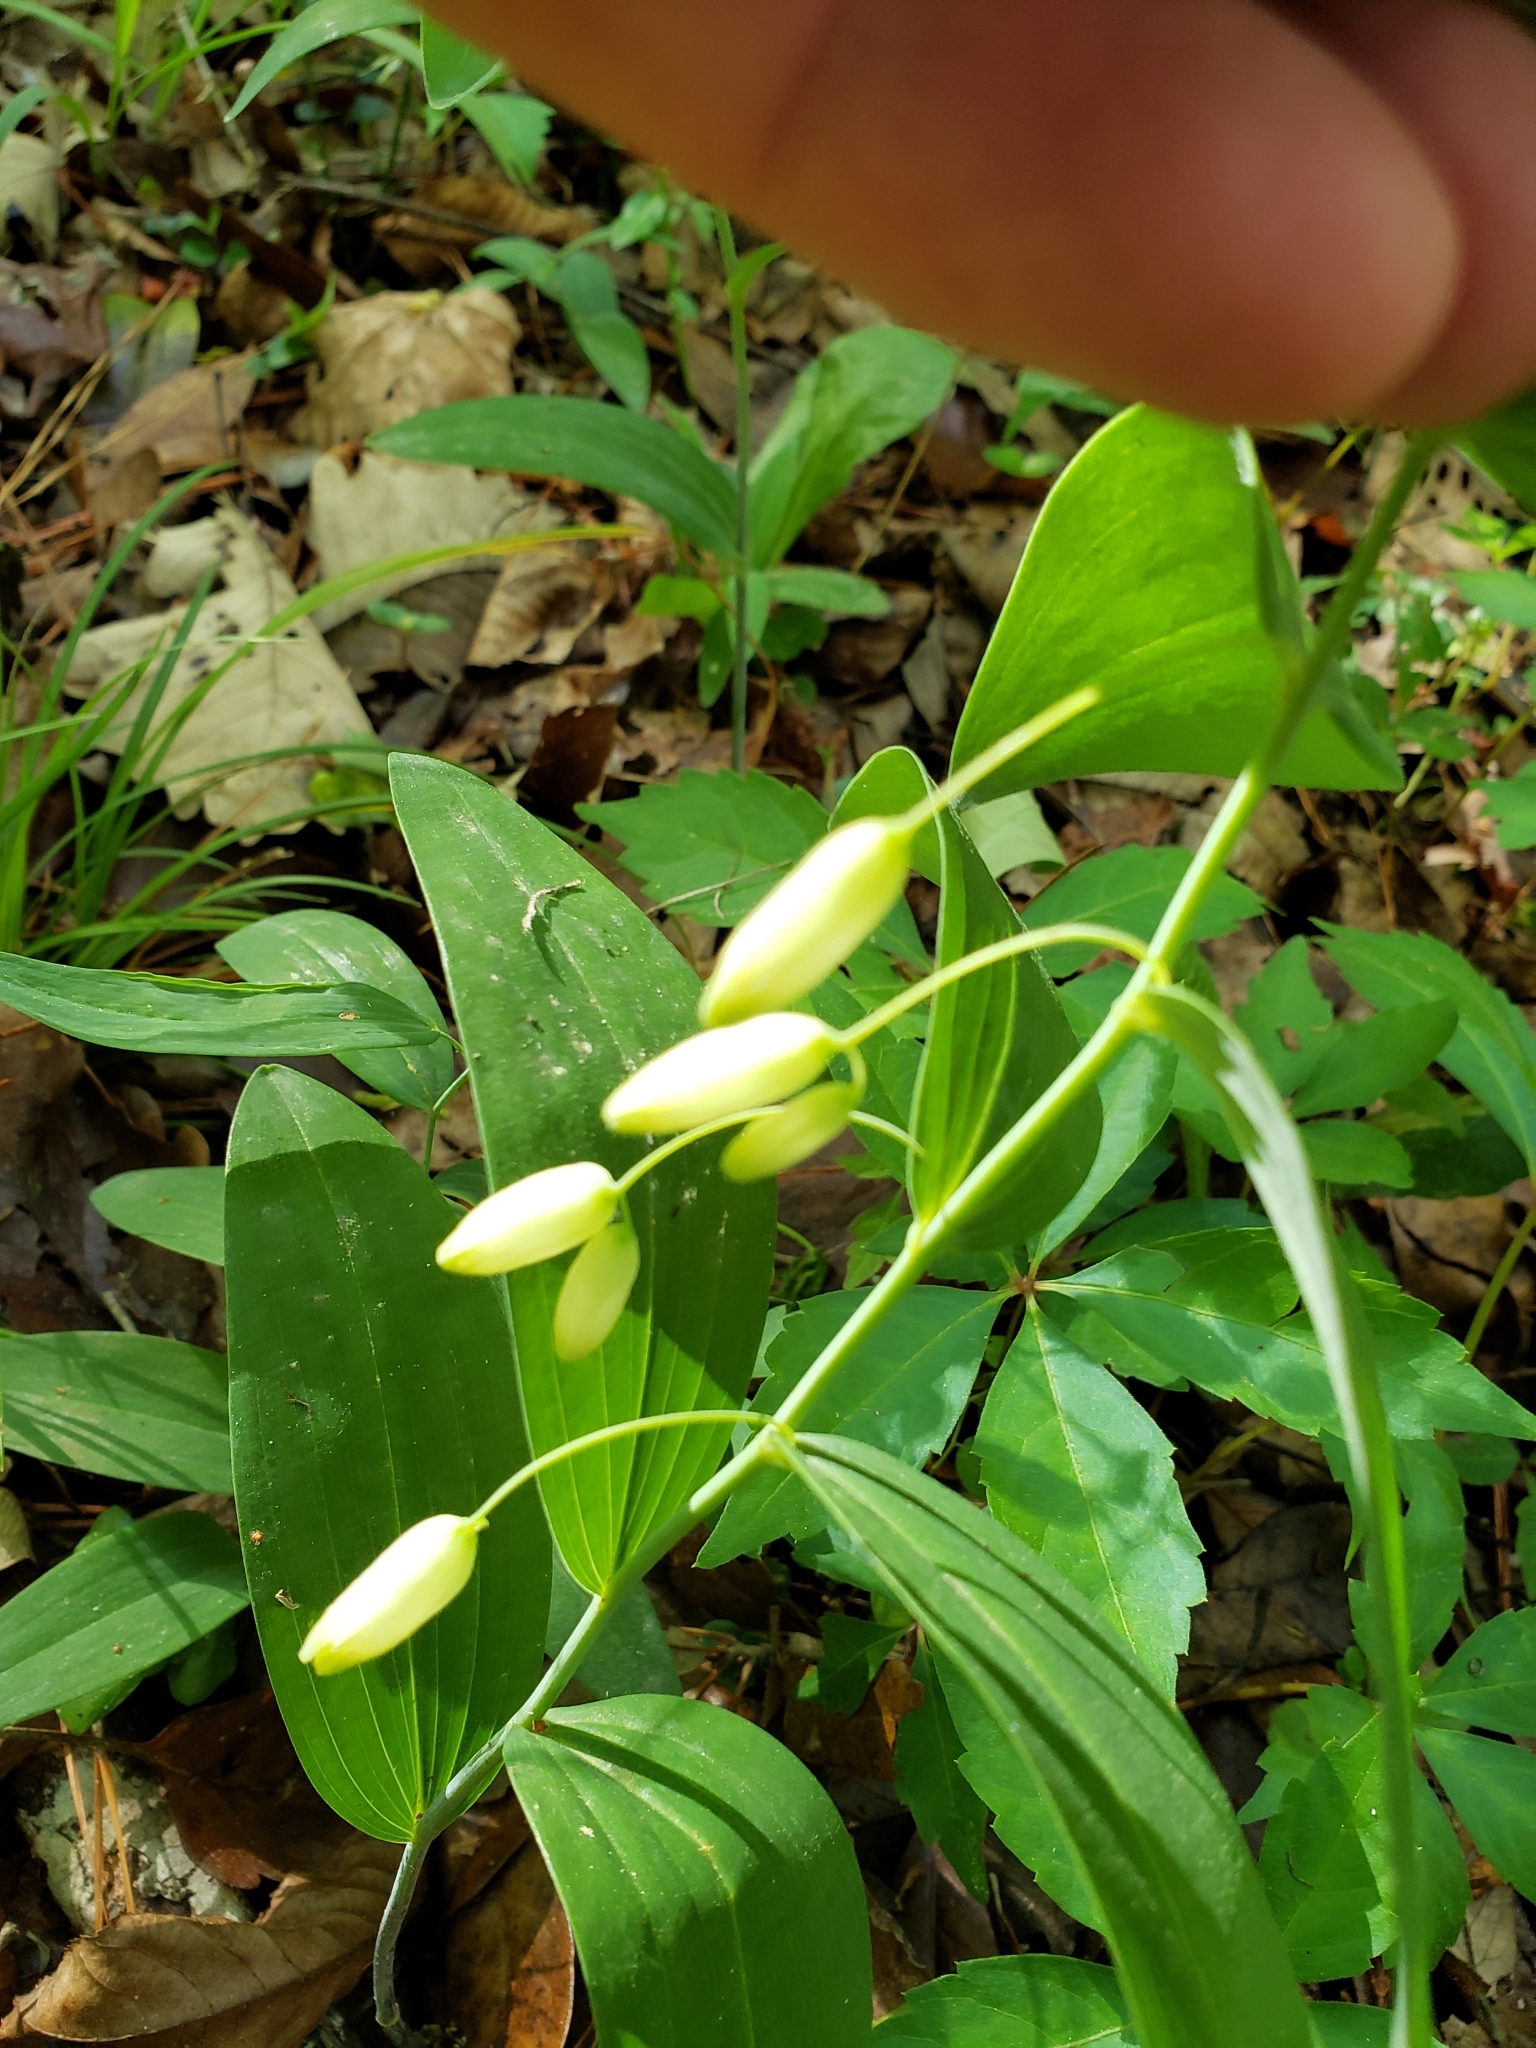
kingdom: Plantae
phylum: Tracheophyta
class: Liliopsida
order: Asparagales
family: Asparagaceae
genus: Polygonatum
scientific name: Polygonatum biflorum
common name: American solomon's-seal
